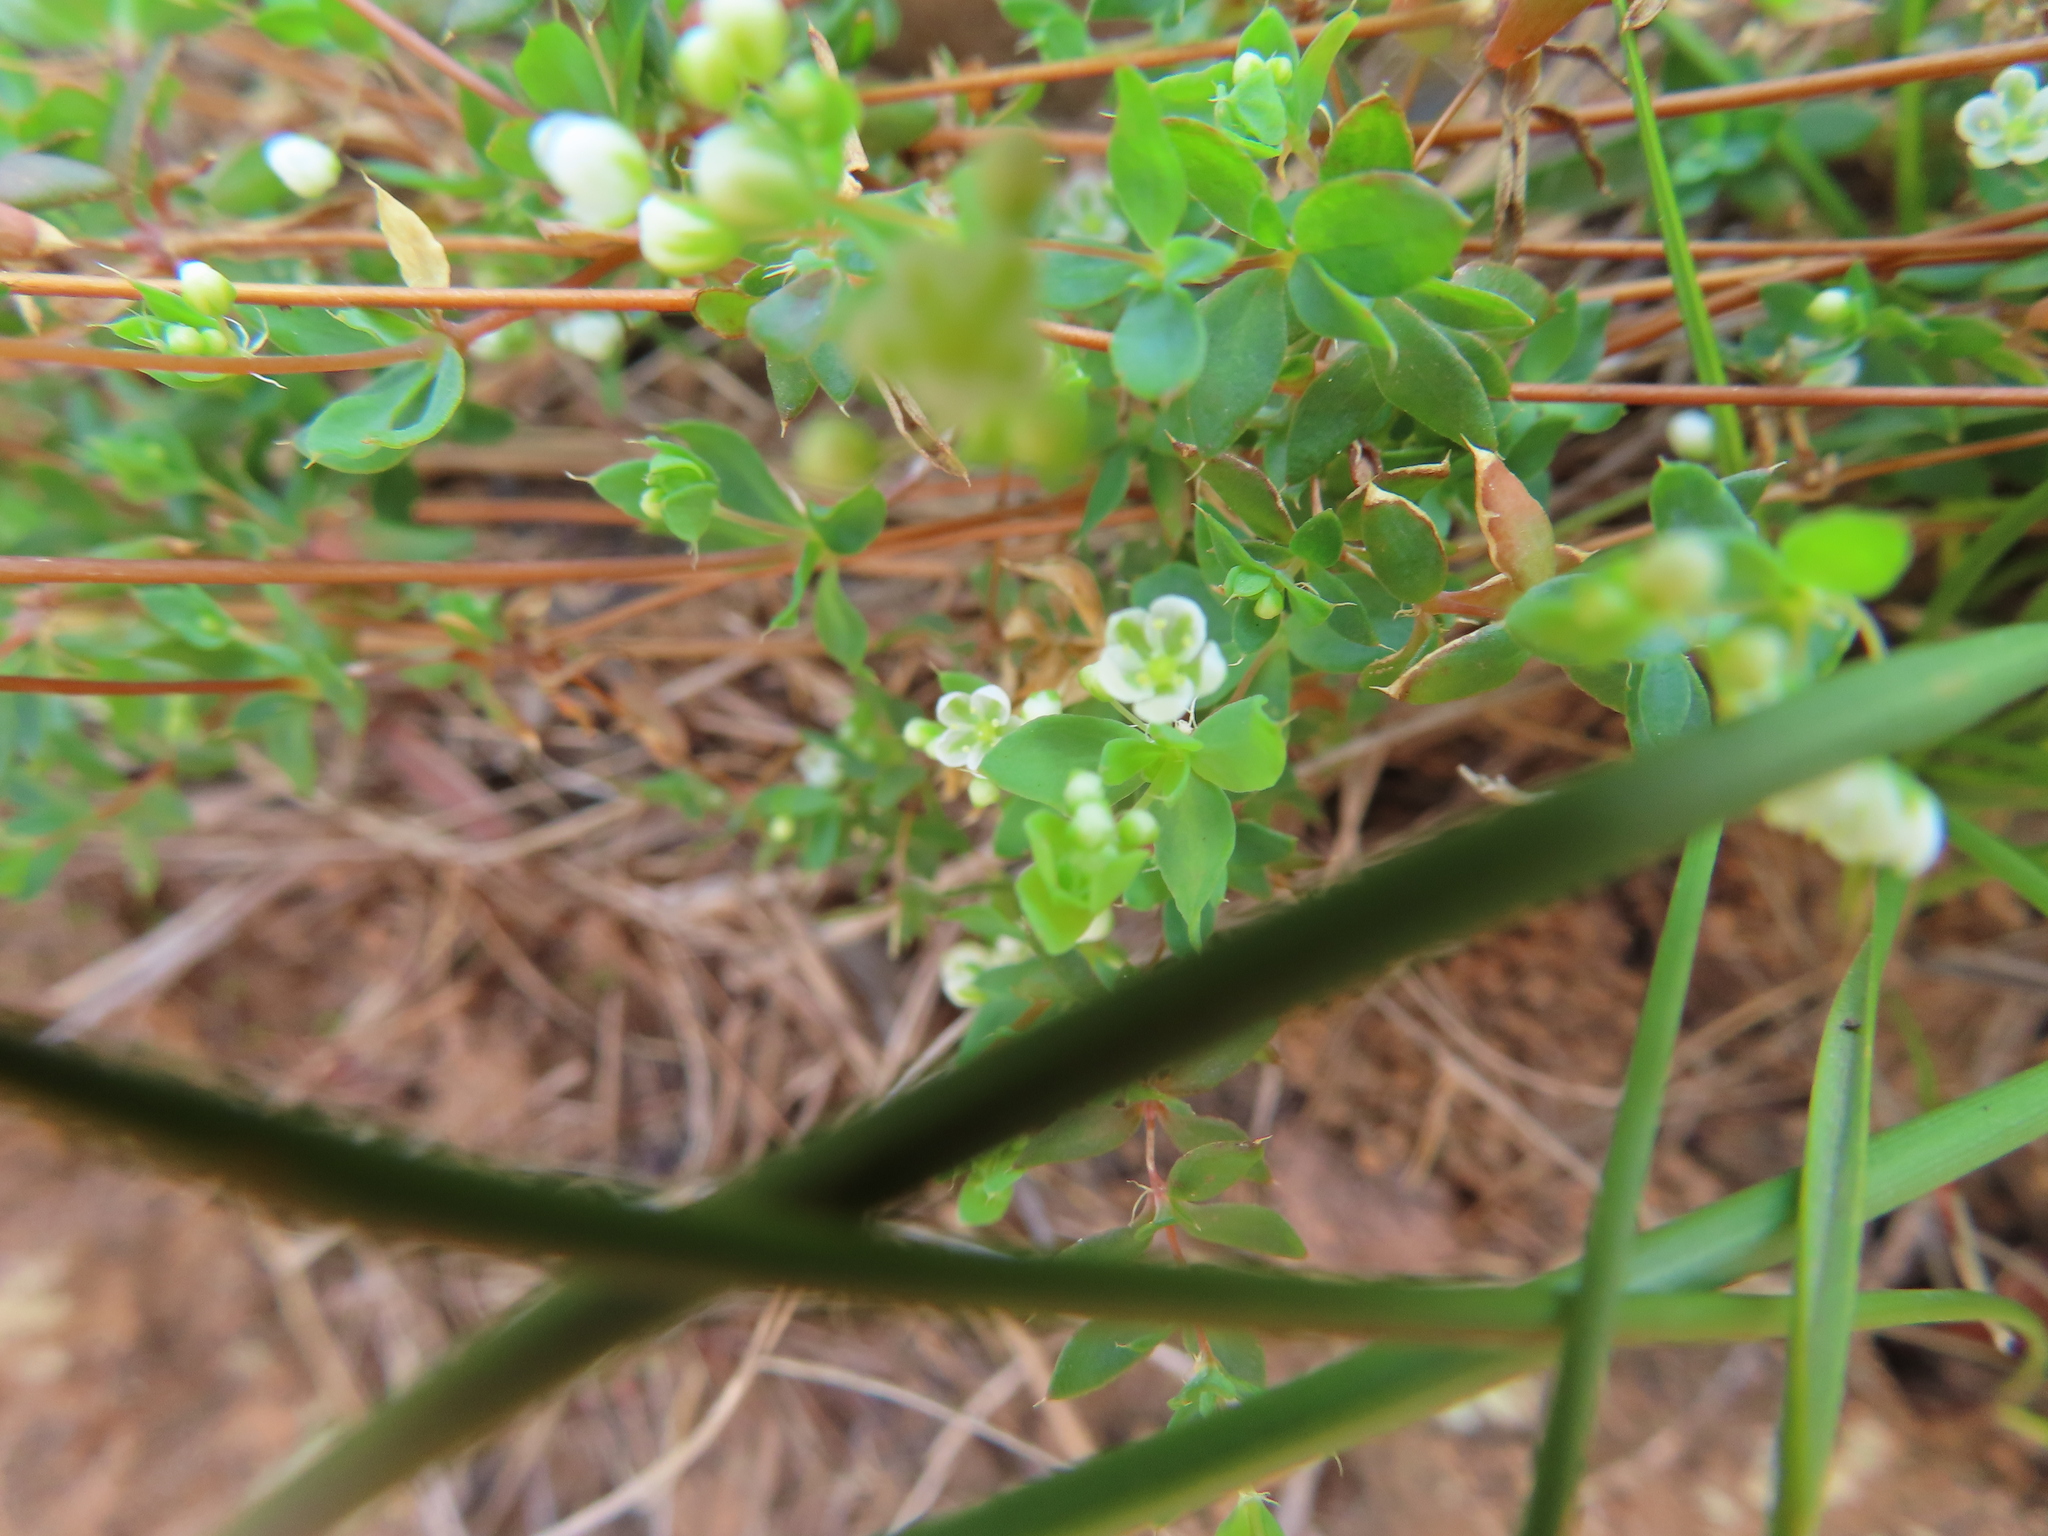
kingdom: Plantae
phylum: Tracheophyta
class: Magnoliopsida
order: Caryophyllales
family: Molluginaceae
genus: Adenogramma
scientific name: Adenogramma lichtensteiniana
